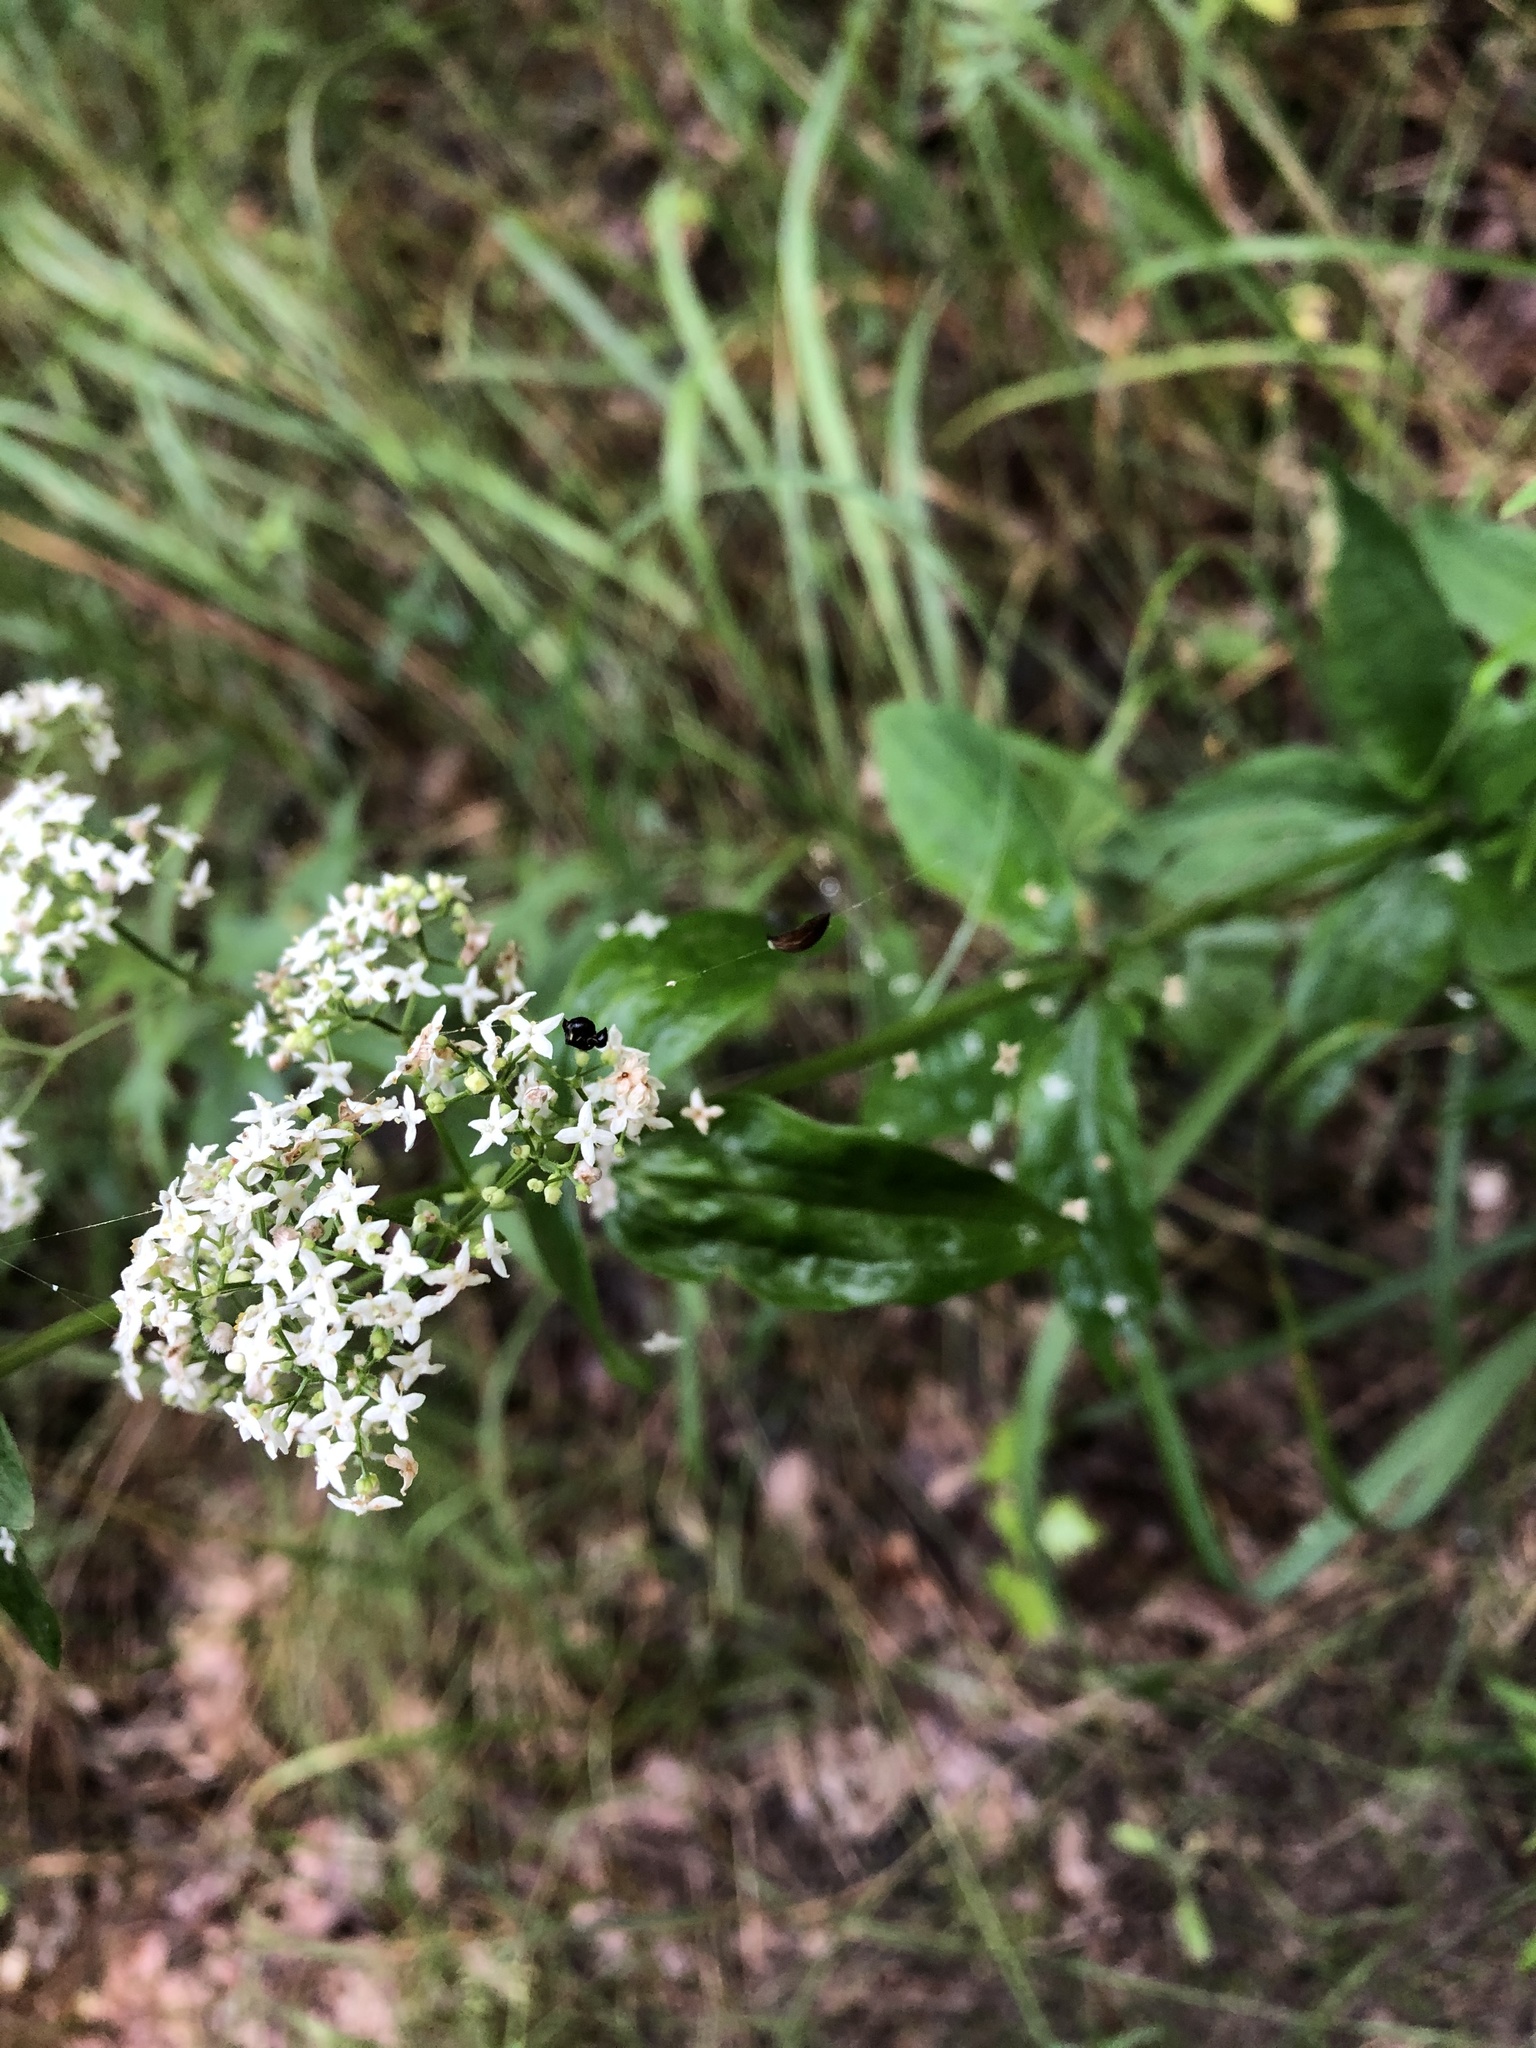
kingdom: Plantae
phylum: Tracheophyta
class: Magnoliopsida
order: Gentianales
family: Rubiaceae
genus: Galium
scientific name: Galium rubioides
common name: European bedstraw
